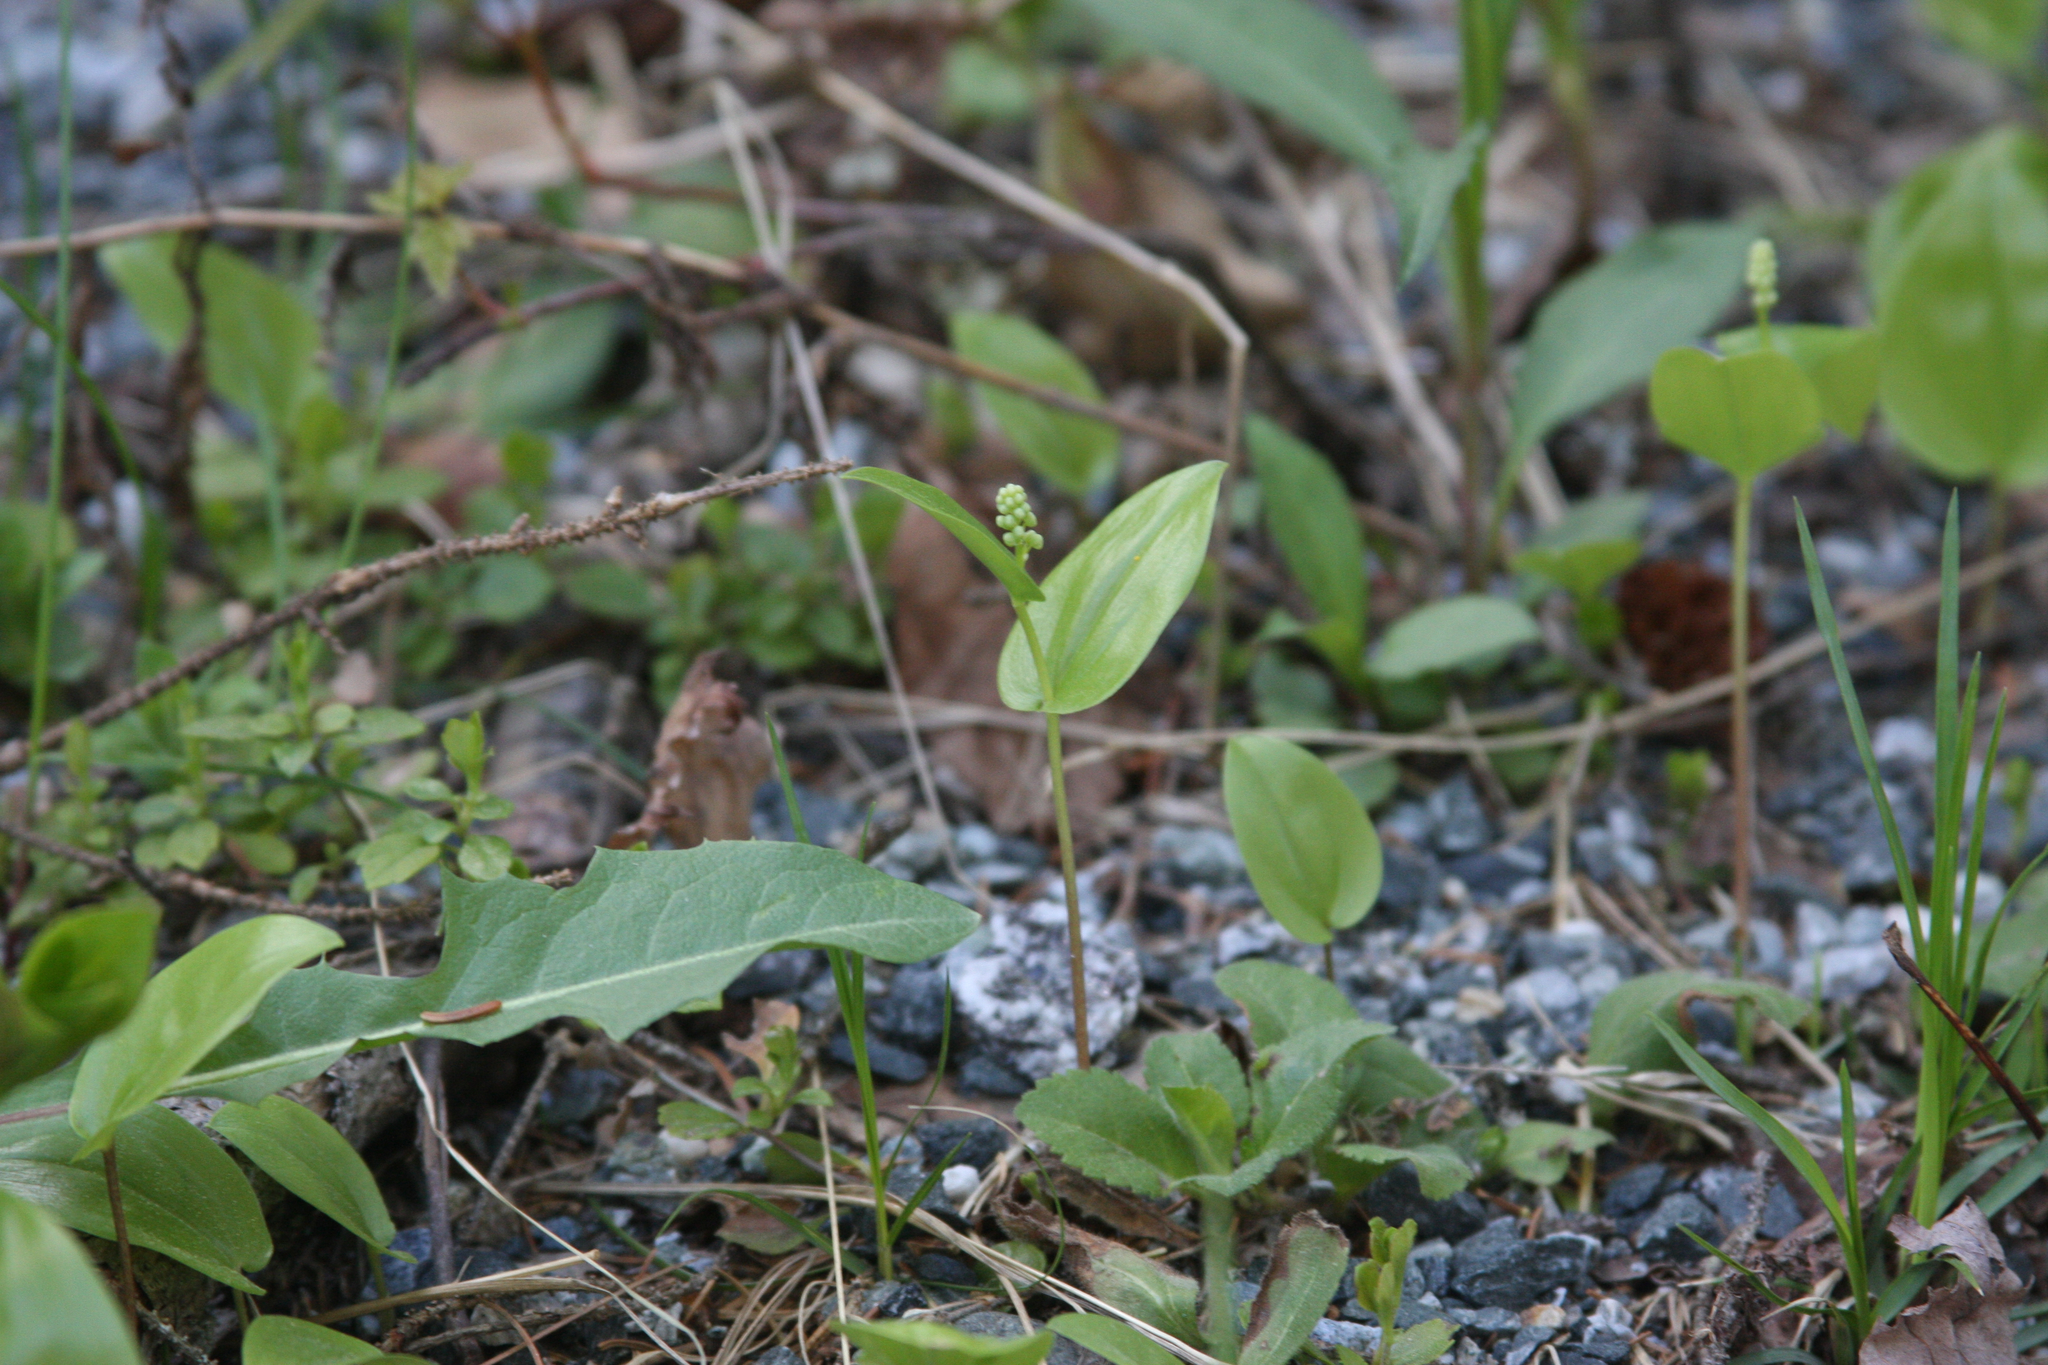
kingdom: Plantae
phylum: Tracheophyta
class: Liliopsida
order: Asparagales
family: Asparagaceae
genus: Maianthemum
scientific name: Maianthemum canadense
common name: False lily-of-the-valley
